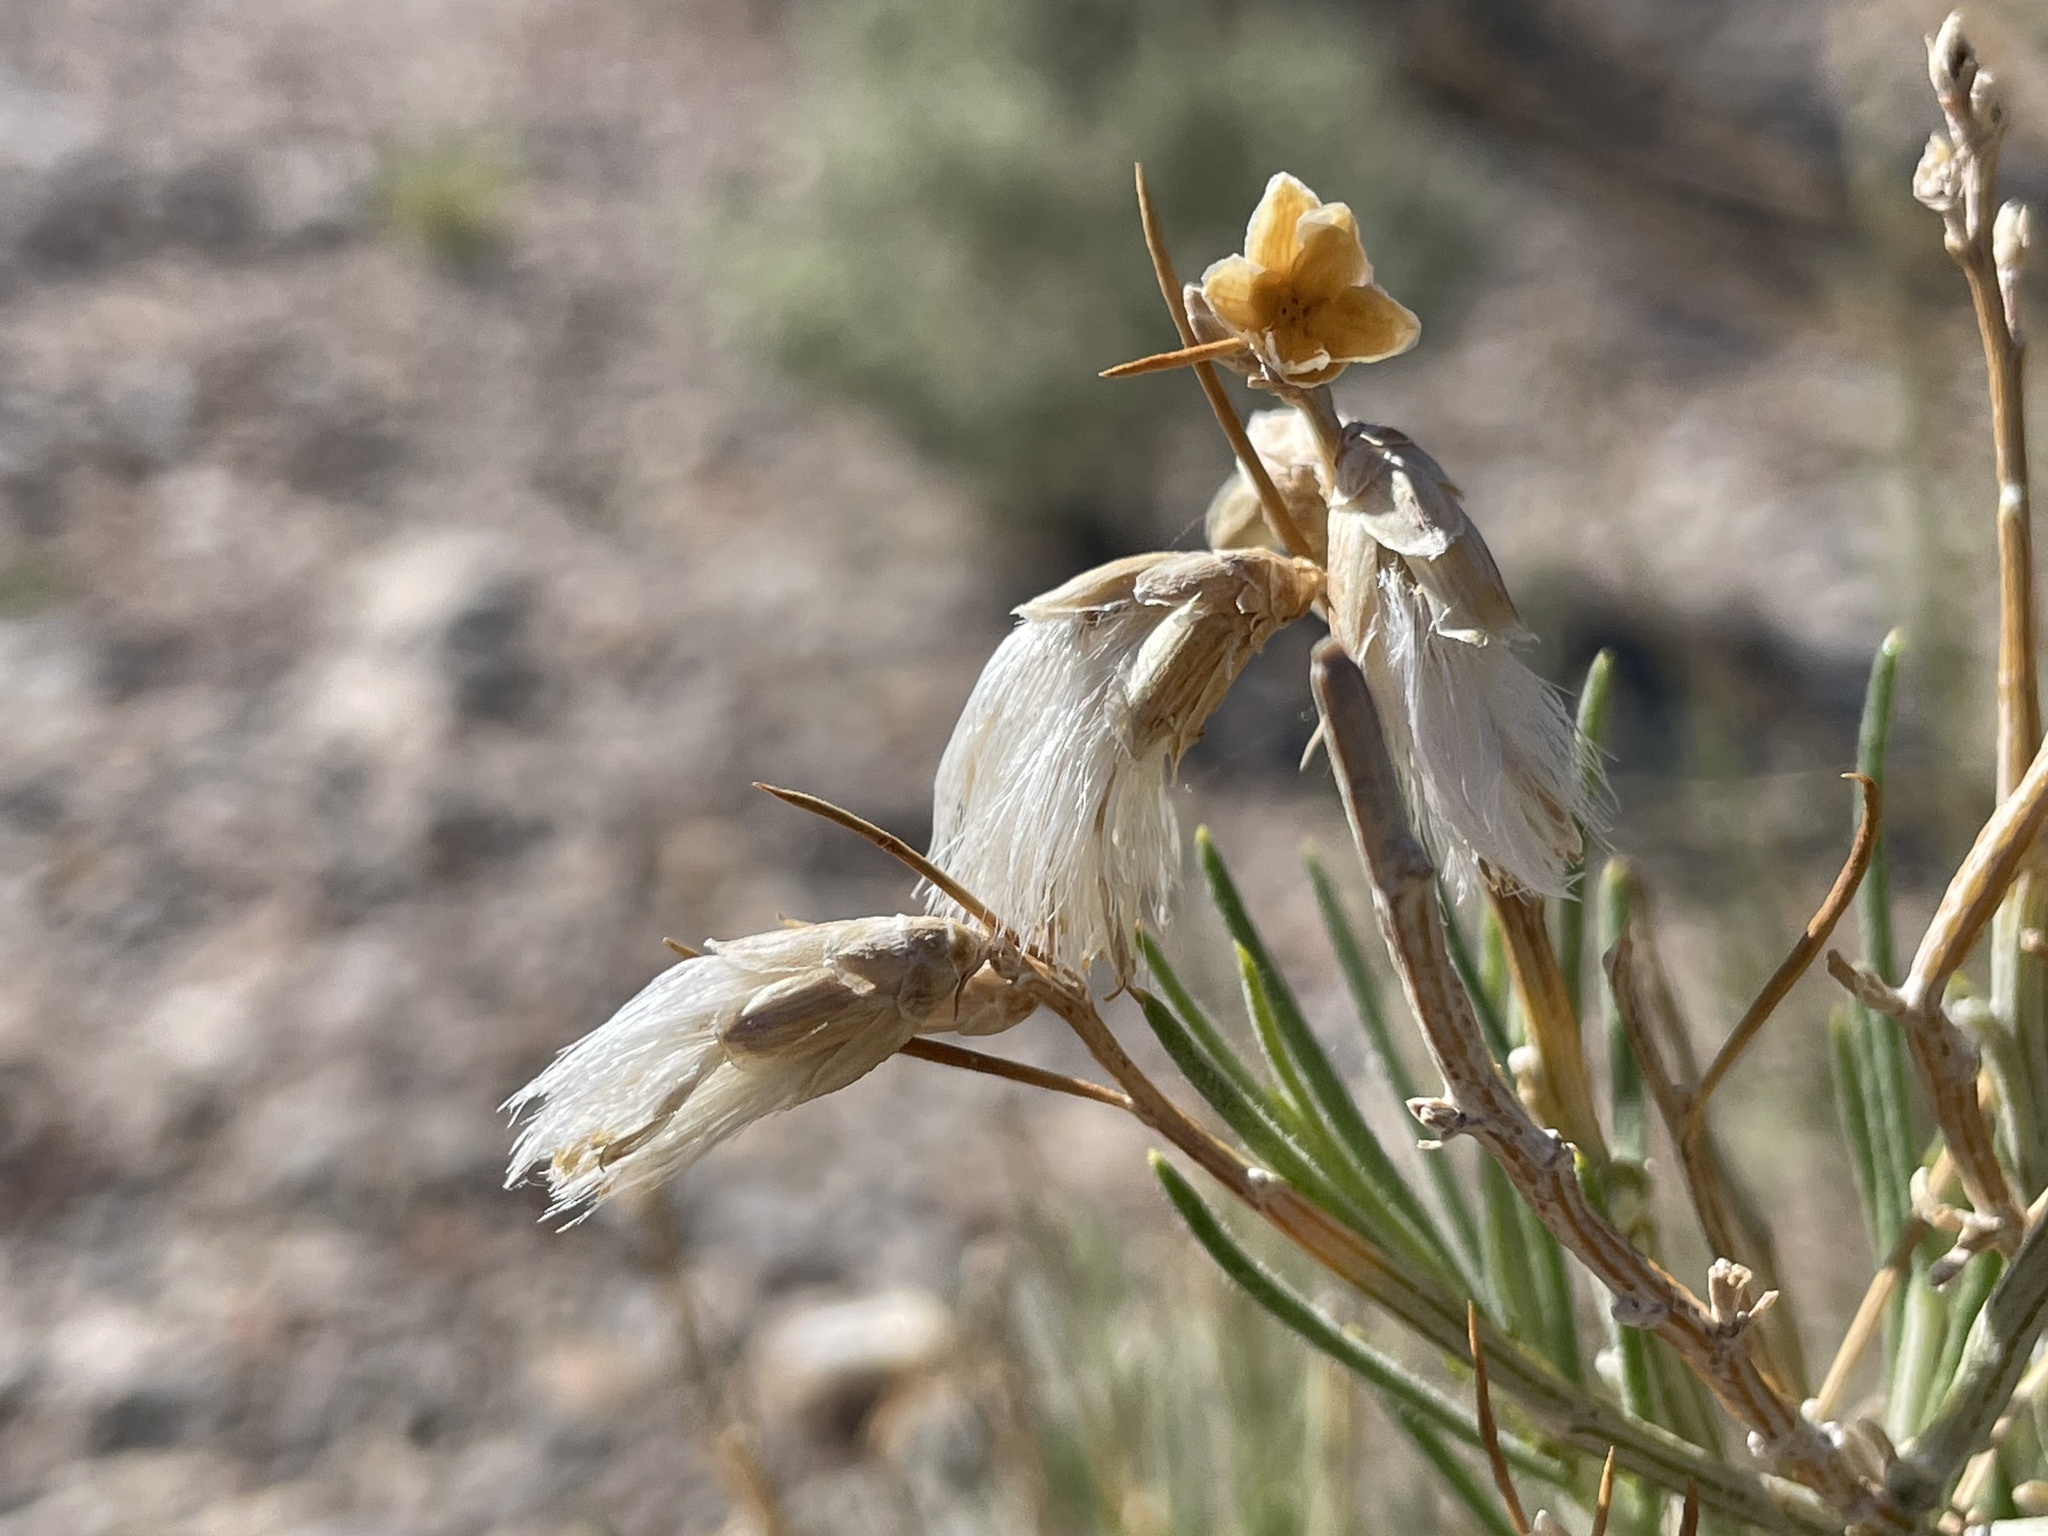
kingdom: Plantae
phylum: Tracheophyta
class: Magnoliopsida
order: Asterales
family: Asteraceae
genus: Lepidospartum
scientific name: Lepidospartum latisquamum
